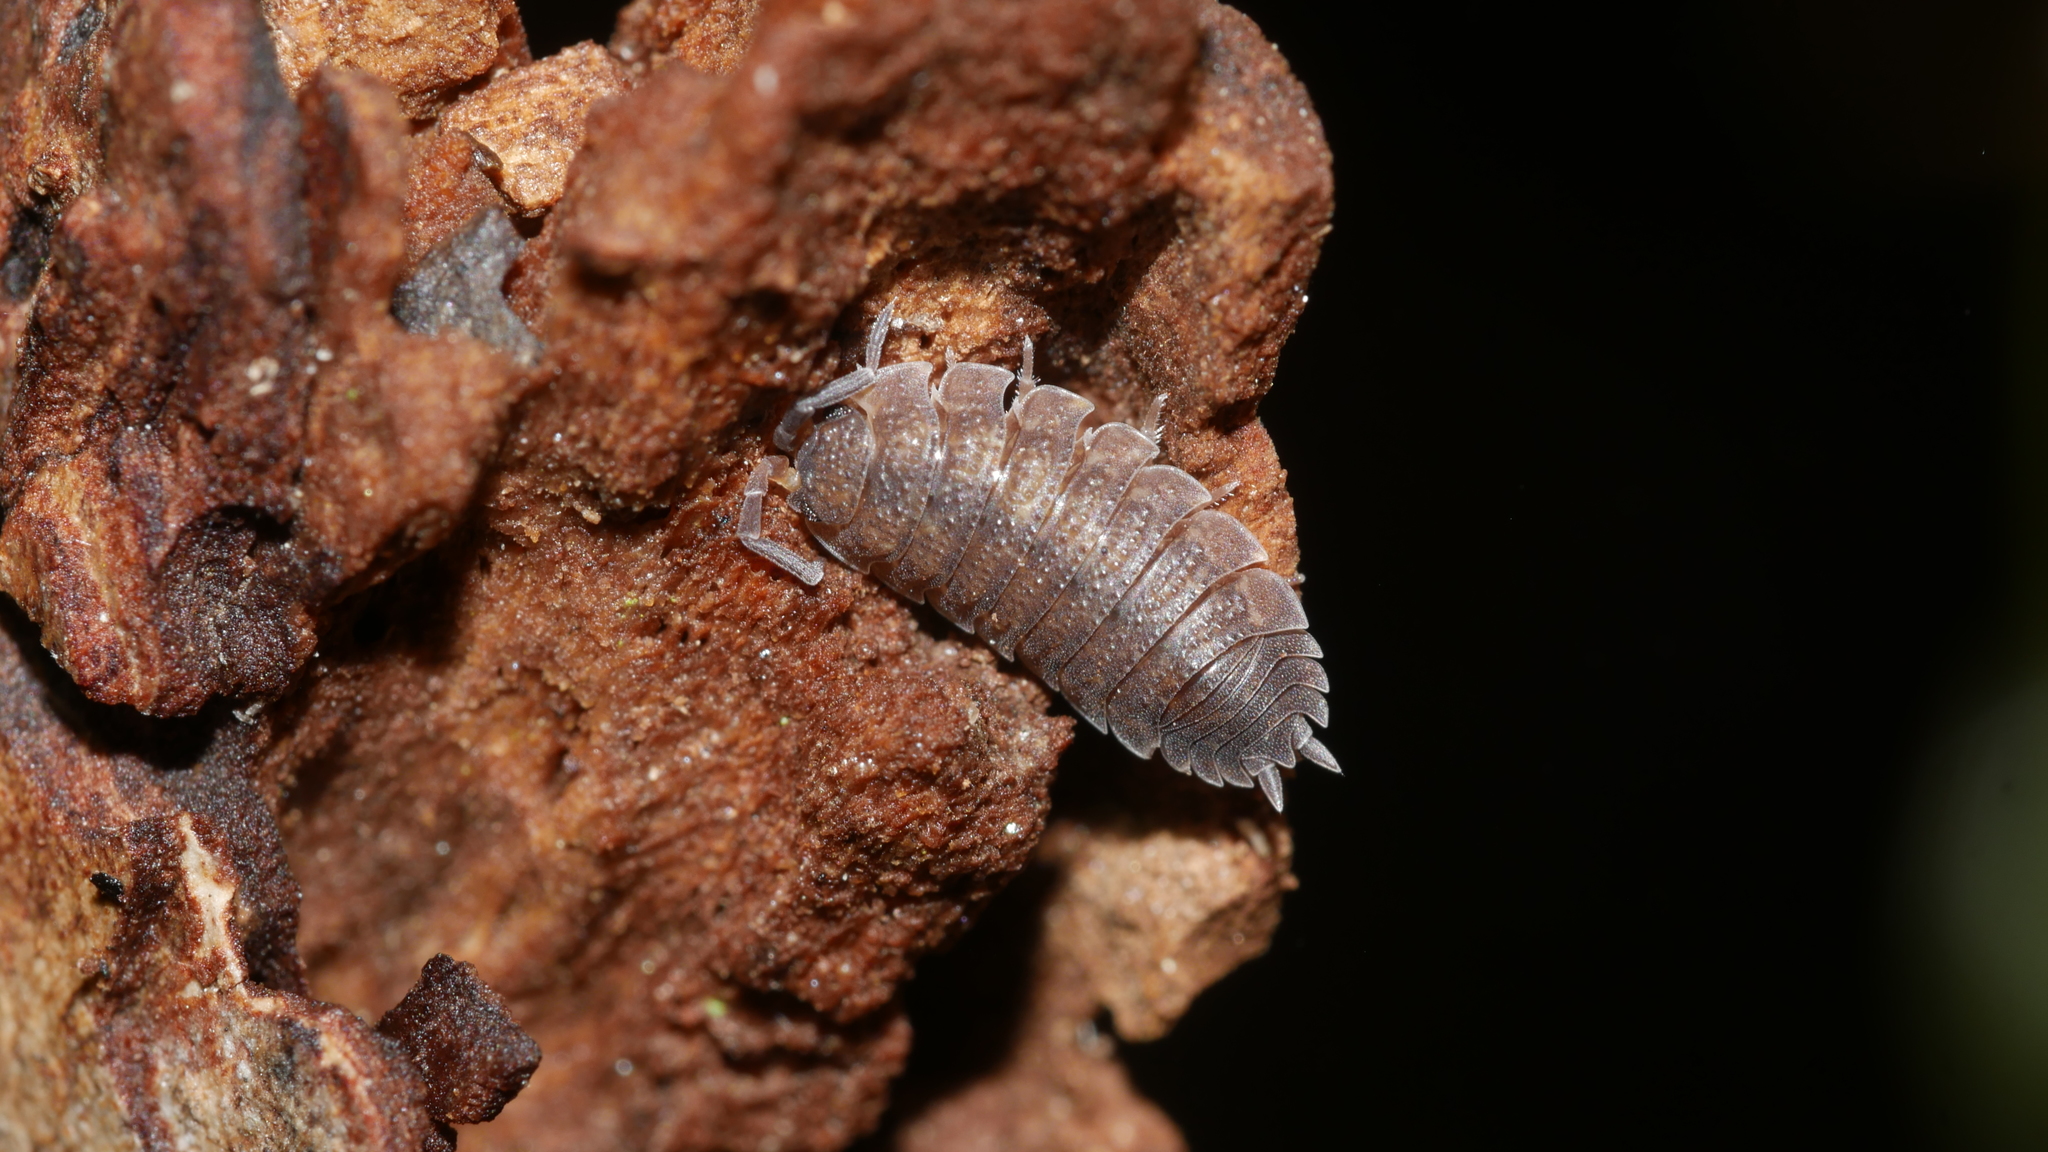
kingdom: Animalia
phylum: Arthropoda
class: Malacostraca
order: Isopoda
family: Porcellionidae
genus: Porcellio
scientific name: Porcellio scaber
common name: Common rough woodlouse
